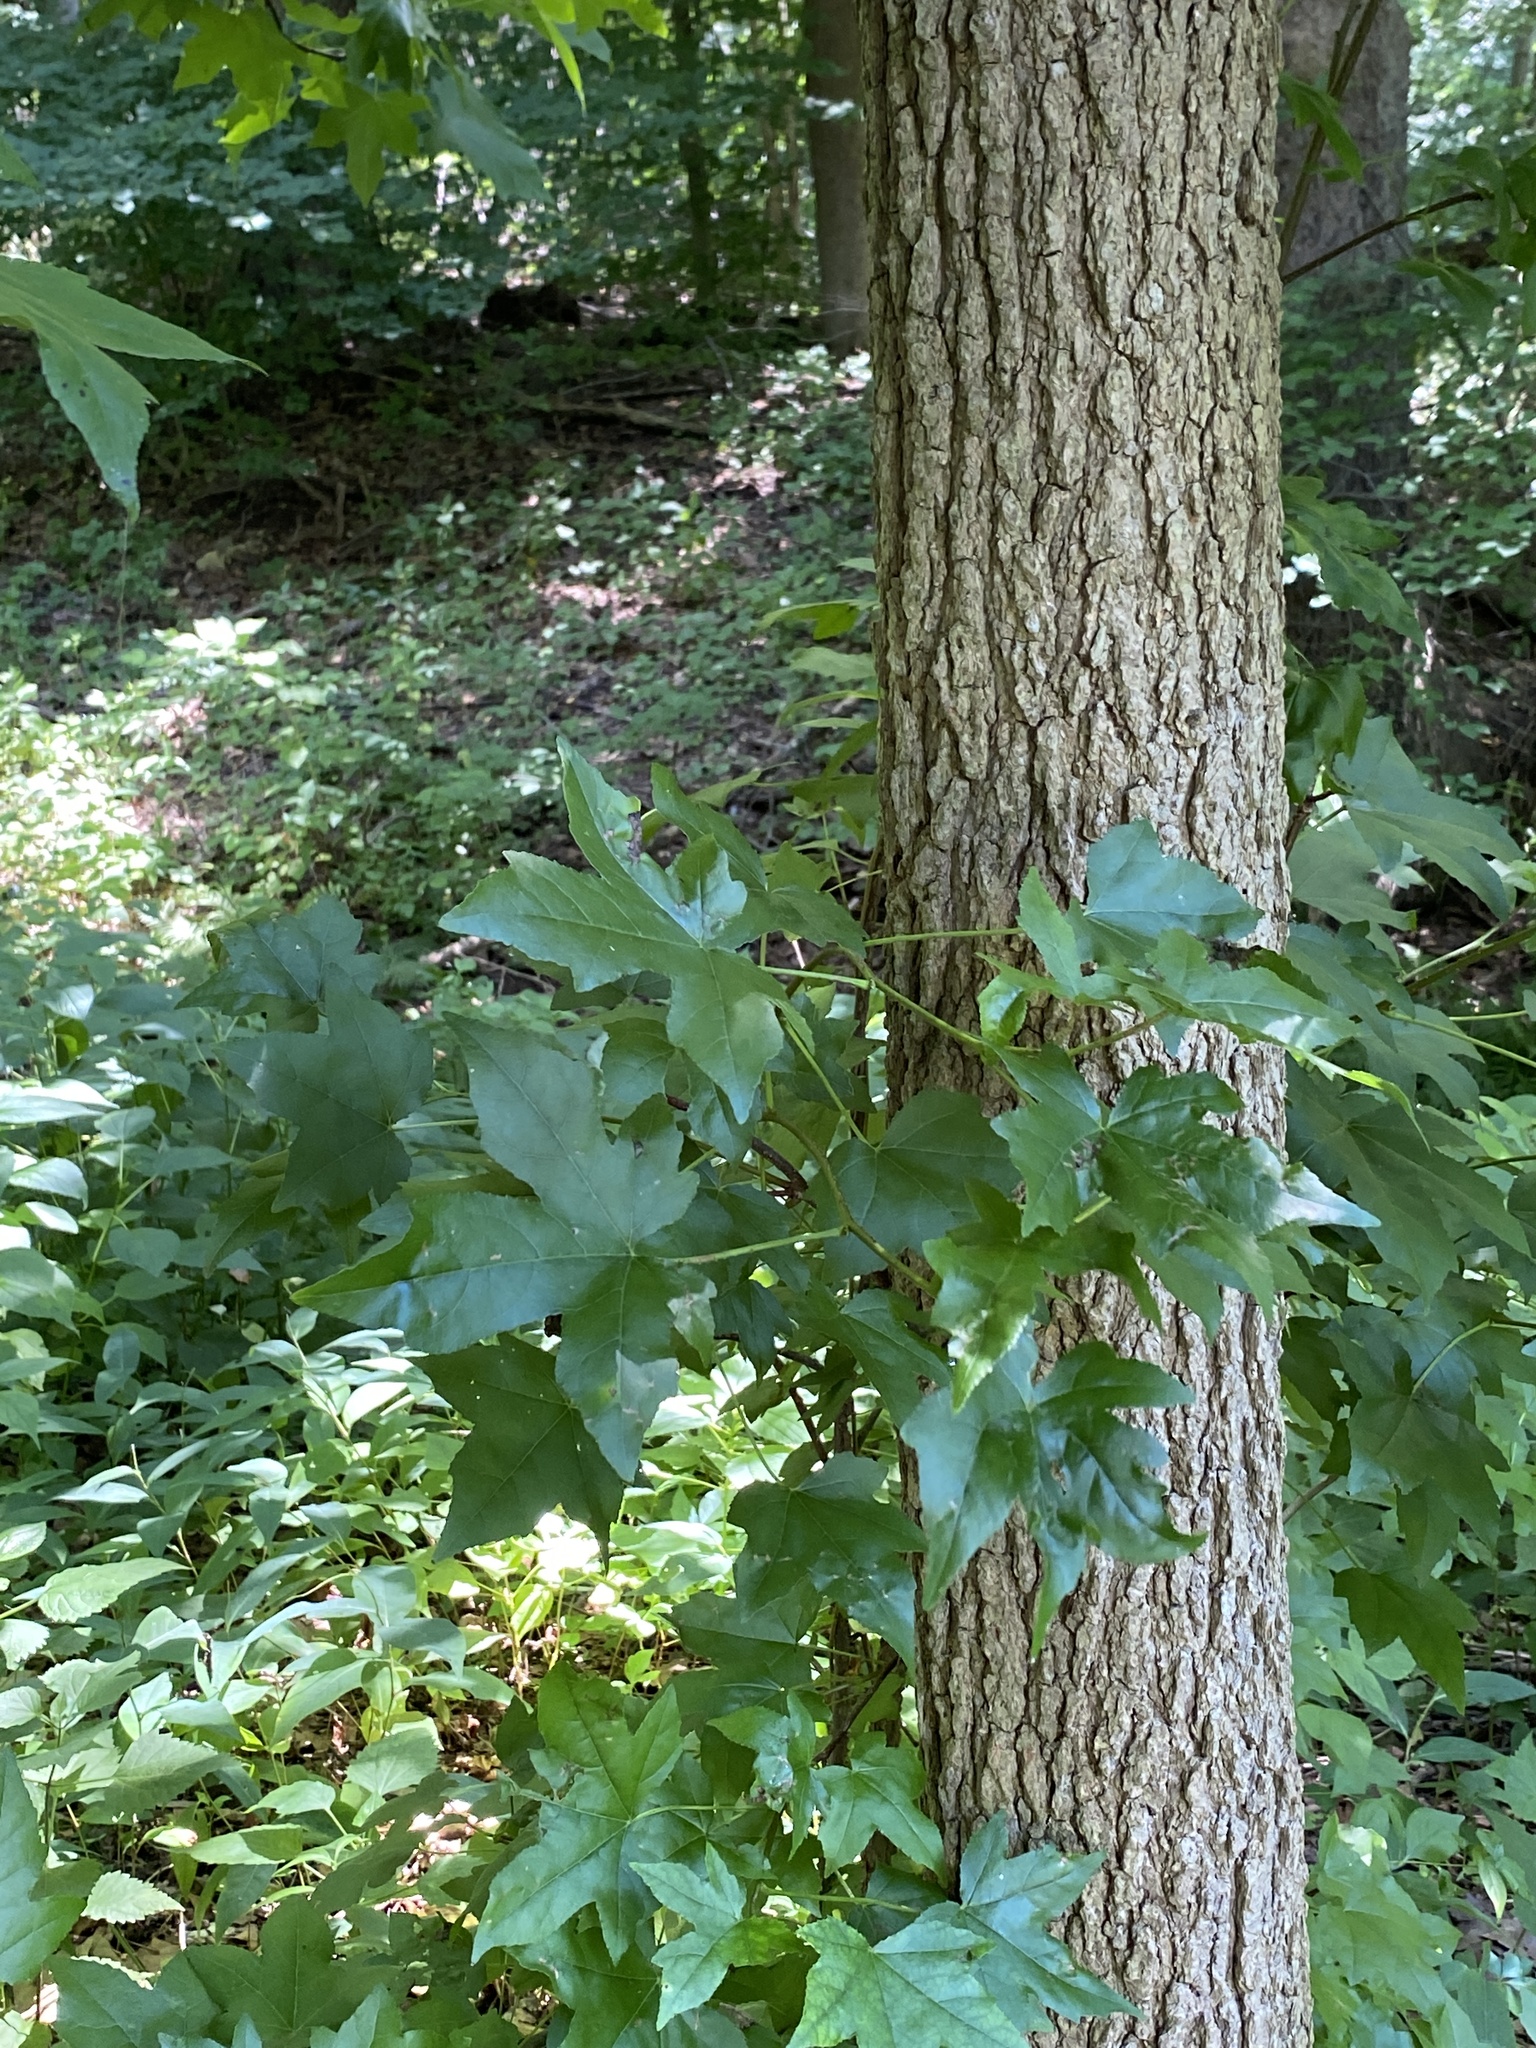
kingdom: Plantae
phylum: Tracheophyta
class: Magnoliopsida
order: Saxifragales
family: Altingiaceae
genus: Liquidambar
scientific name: Liquidambar styraciflua
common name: Sweet gum
